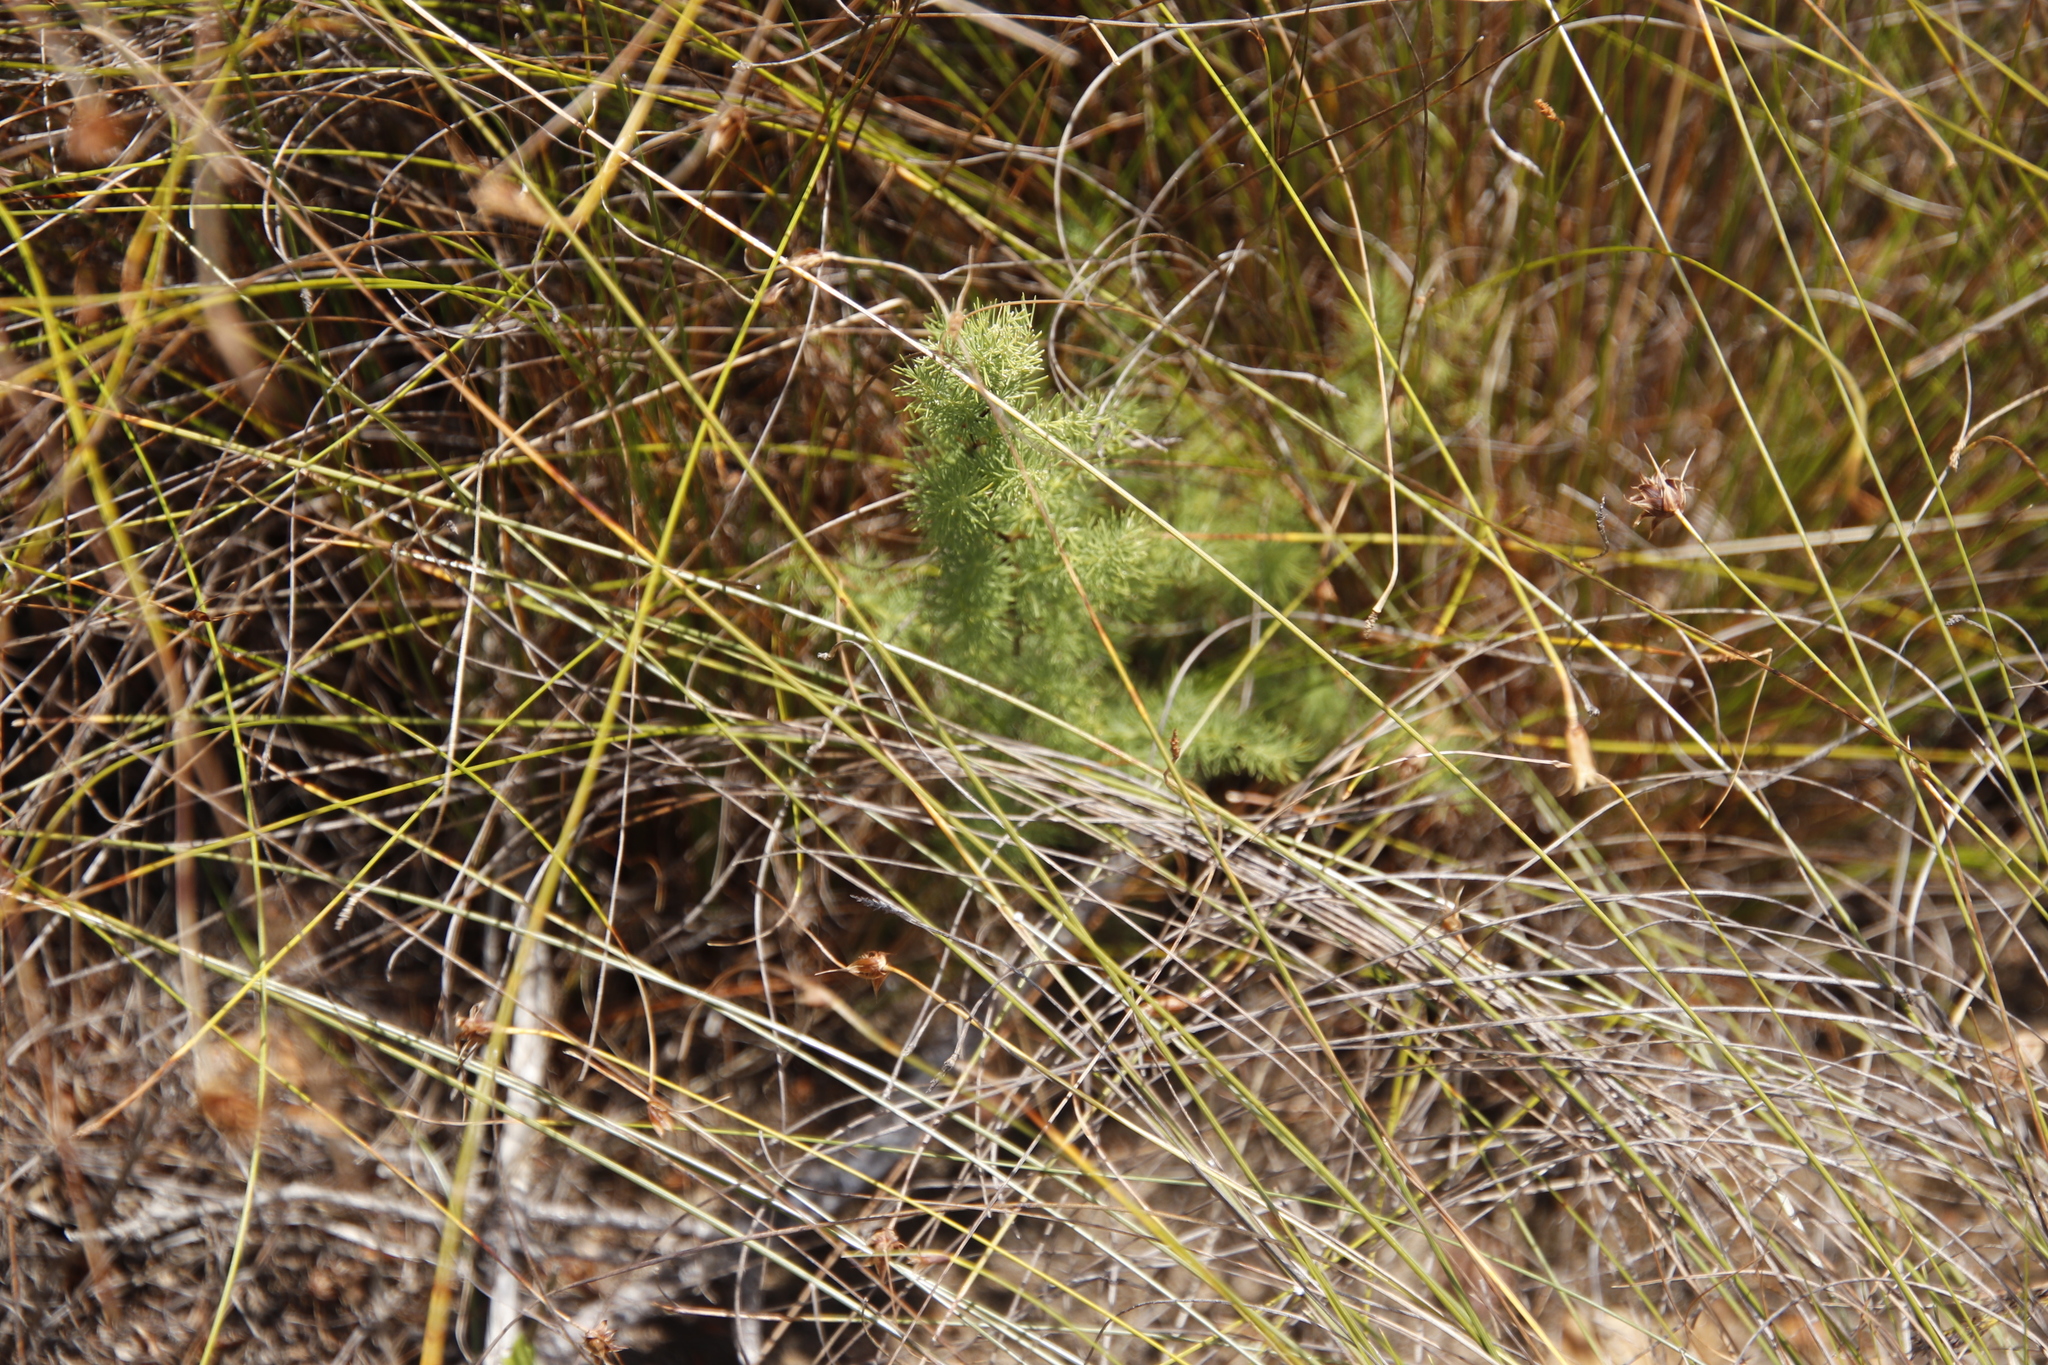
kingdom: Plantae
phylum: Tracheophyta
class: Liliopsida
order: Asparagales
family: Asparagaceae
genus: Asparagus
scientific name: Asparagus rubicundus
